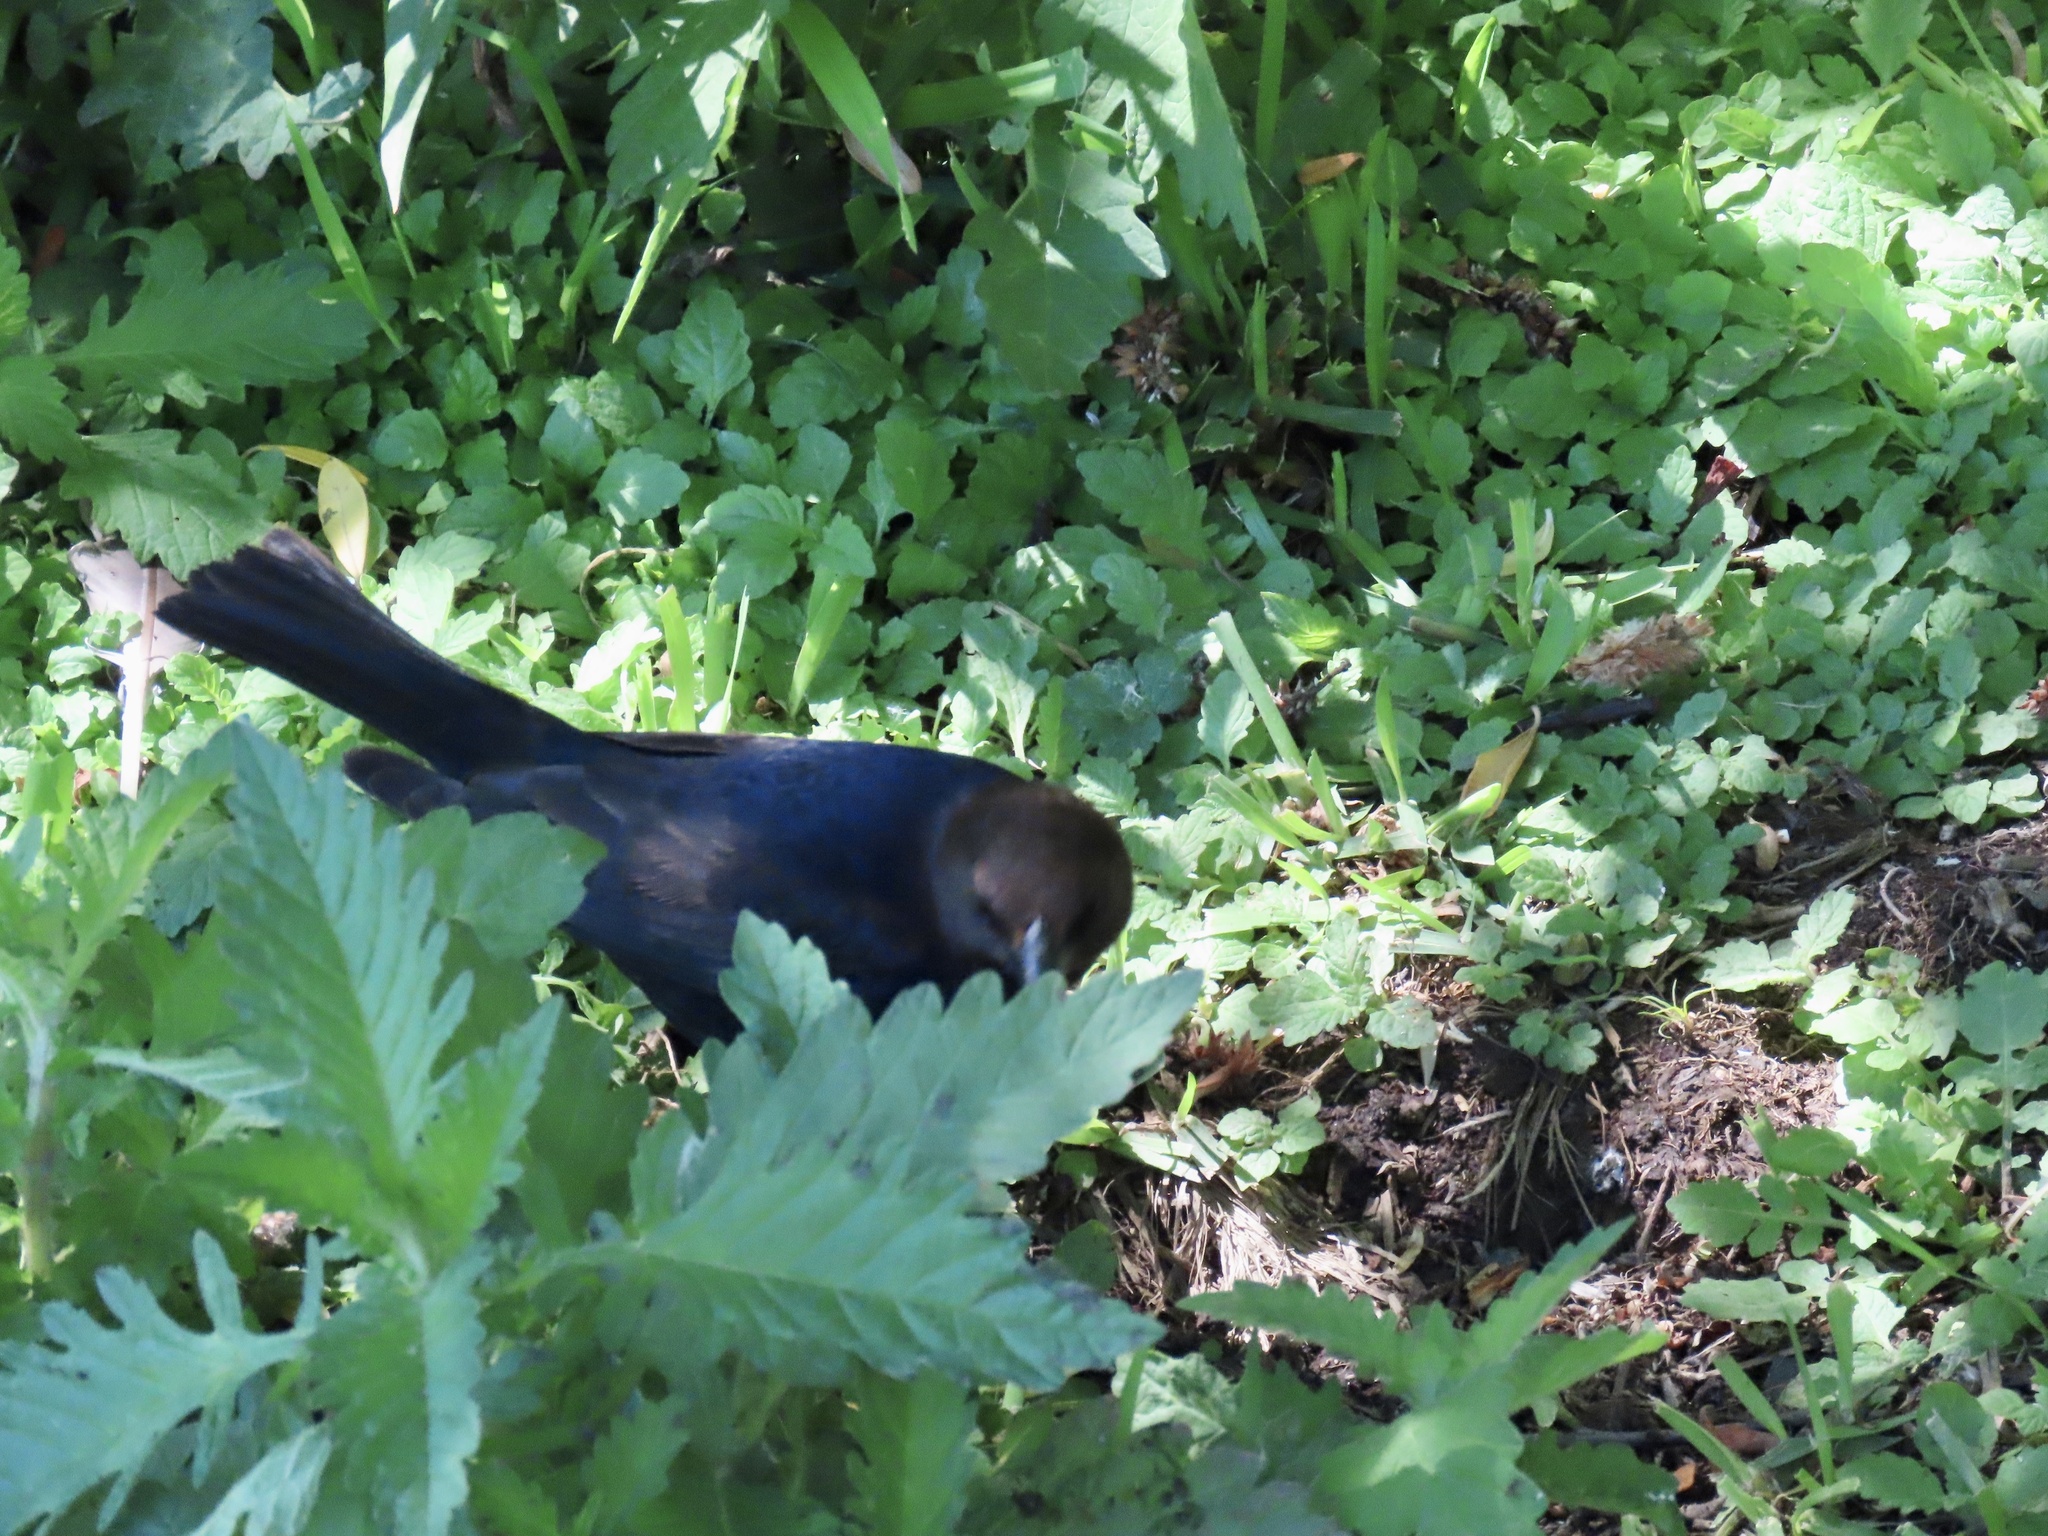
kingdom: Animalia
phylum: Chordata
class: Aves
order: Passeriformes
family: Icteridae
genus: Molothrus
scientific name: Molothrus ater
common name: Brown-headed cowbird
